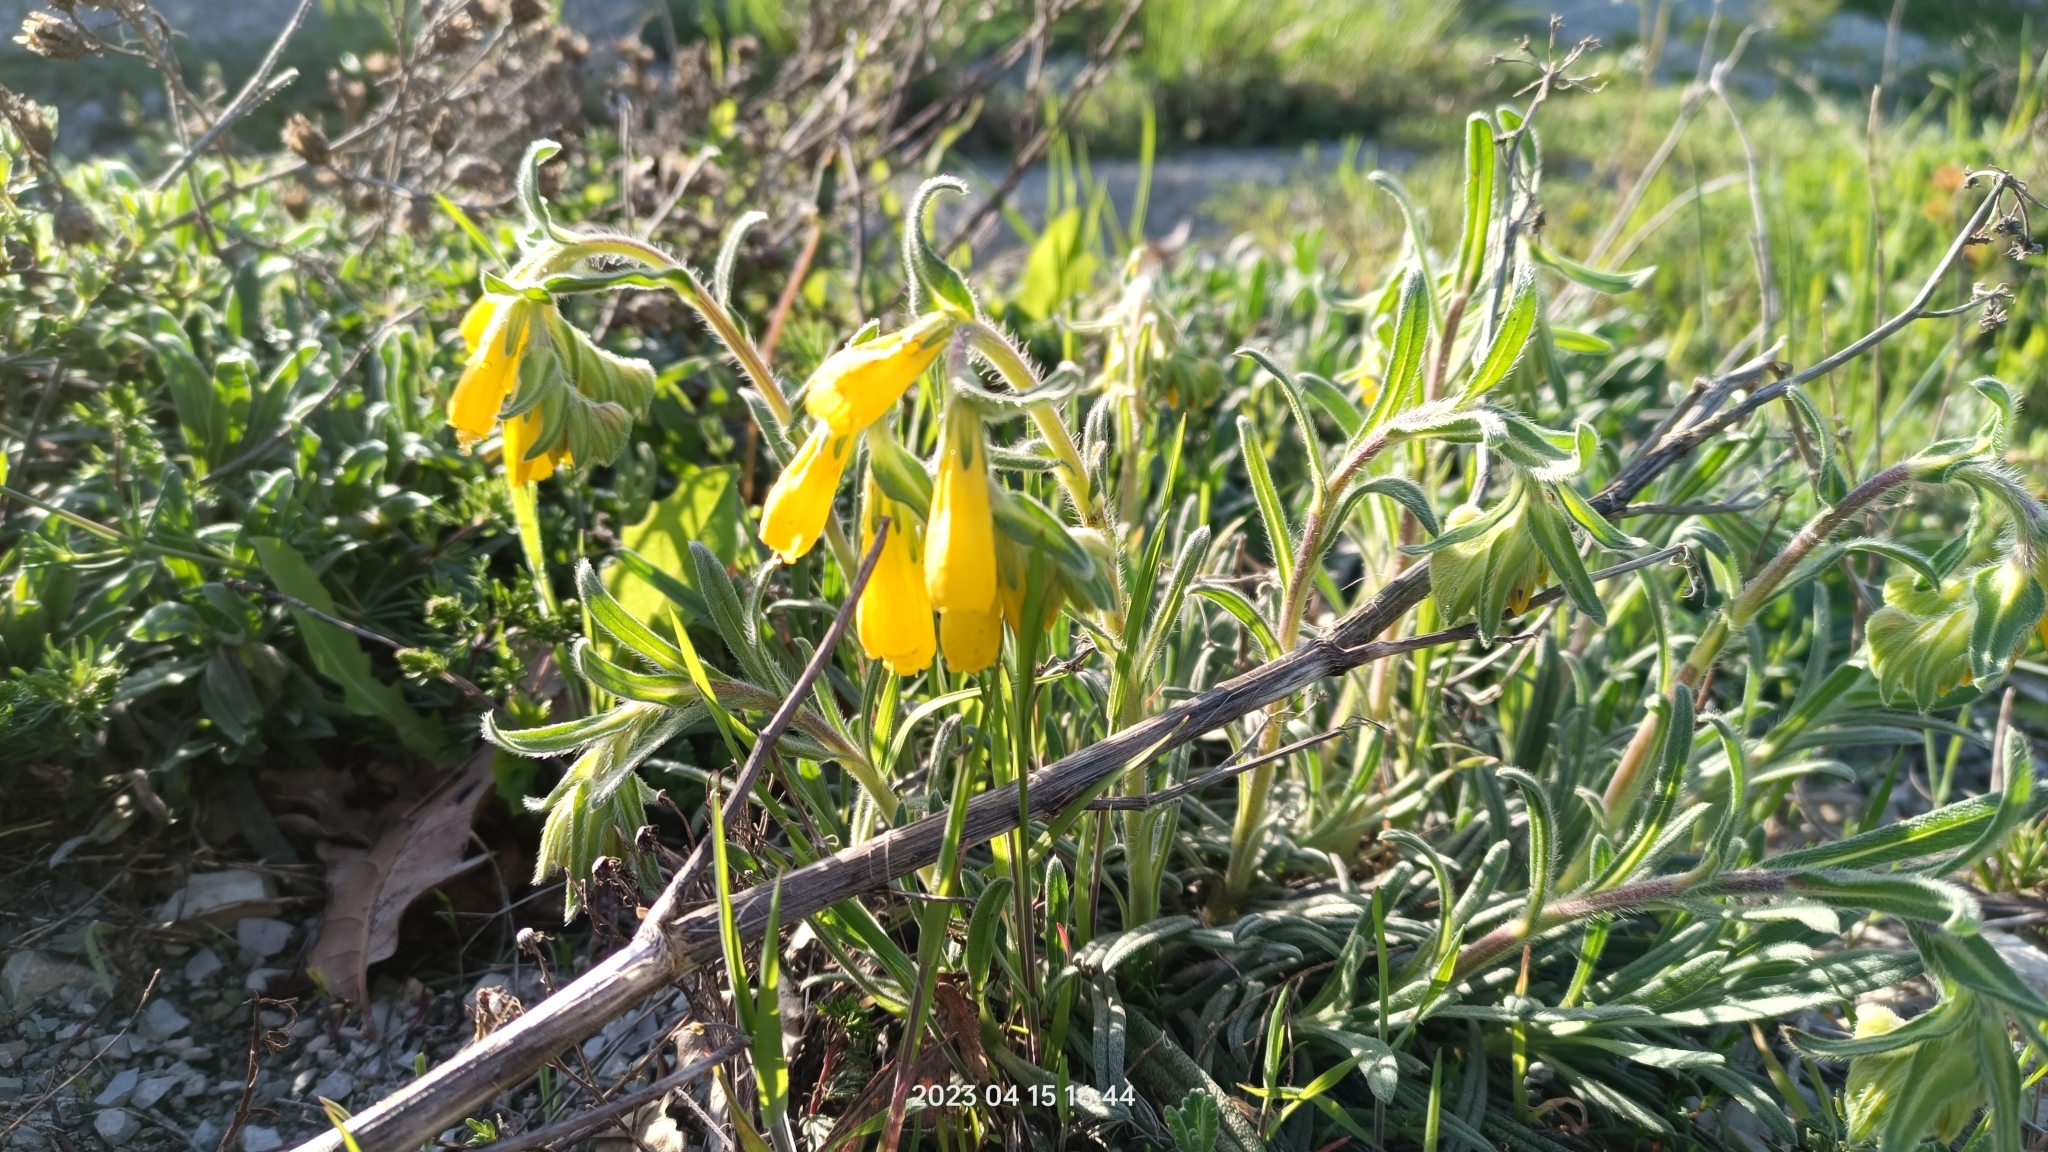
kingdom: Plantae
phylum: Tracheophyta
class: Magnoliopsida
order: Boraginales
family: Boraginaceae
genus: Onosma
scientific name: Onosma taurica
